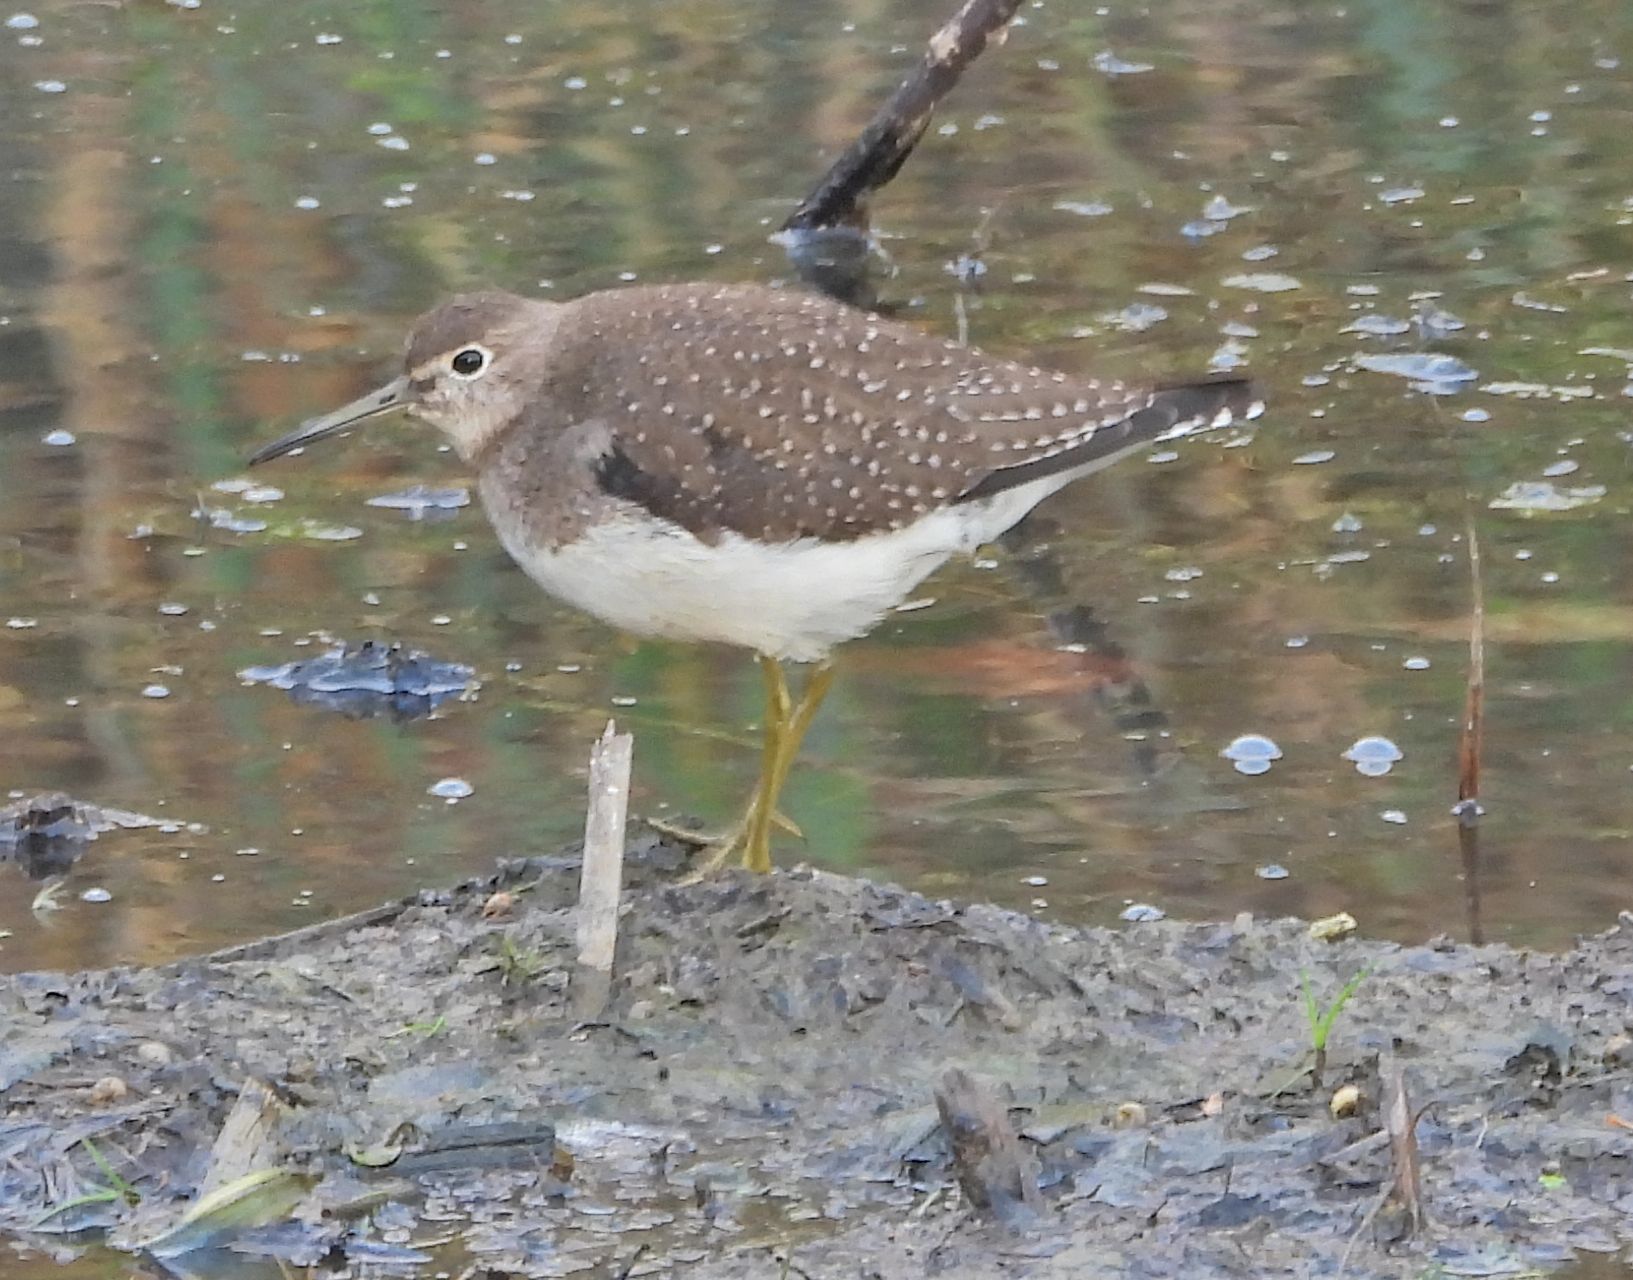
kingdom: Animalia
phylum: Chordata
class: Aves
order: Charadriiformes
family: Scolopacidae
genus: Tringa
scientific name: Tringa solitaria
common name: Solitary sandpiper
